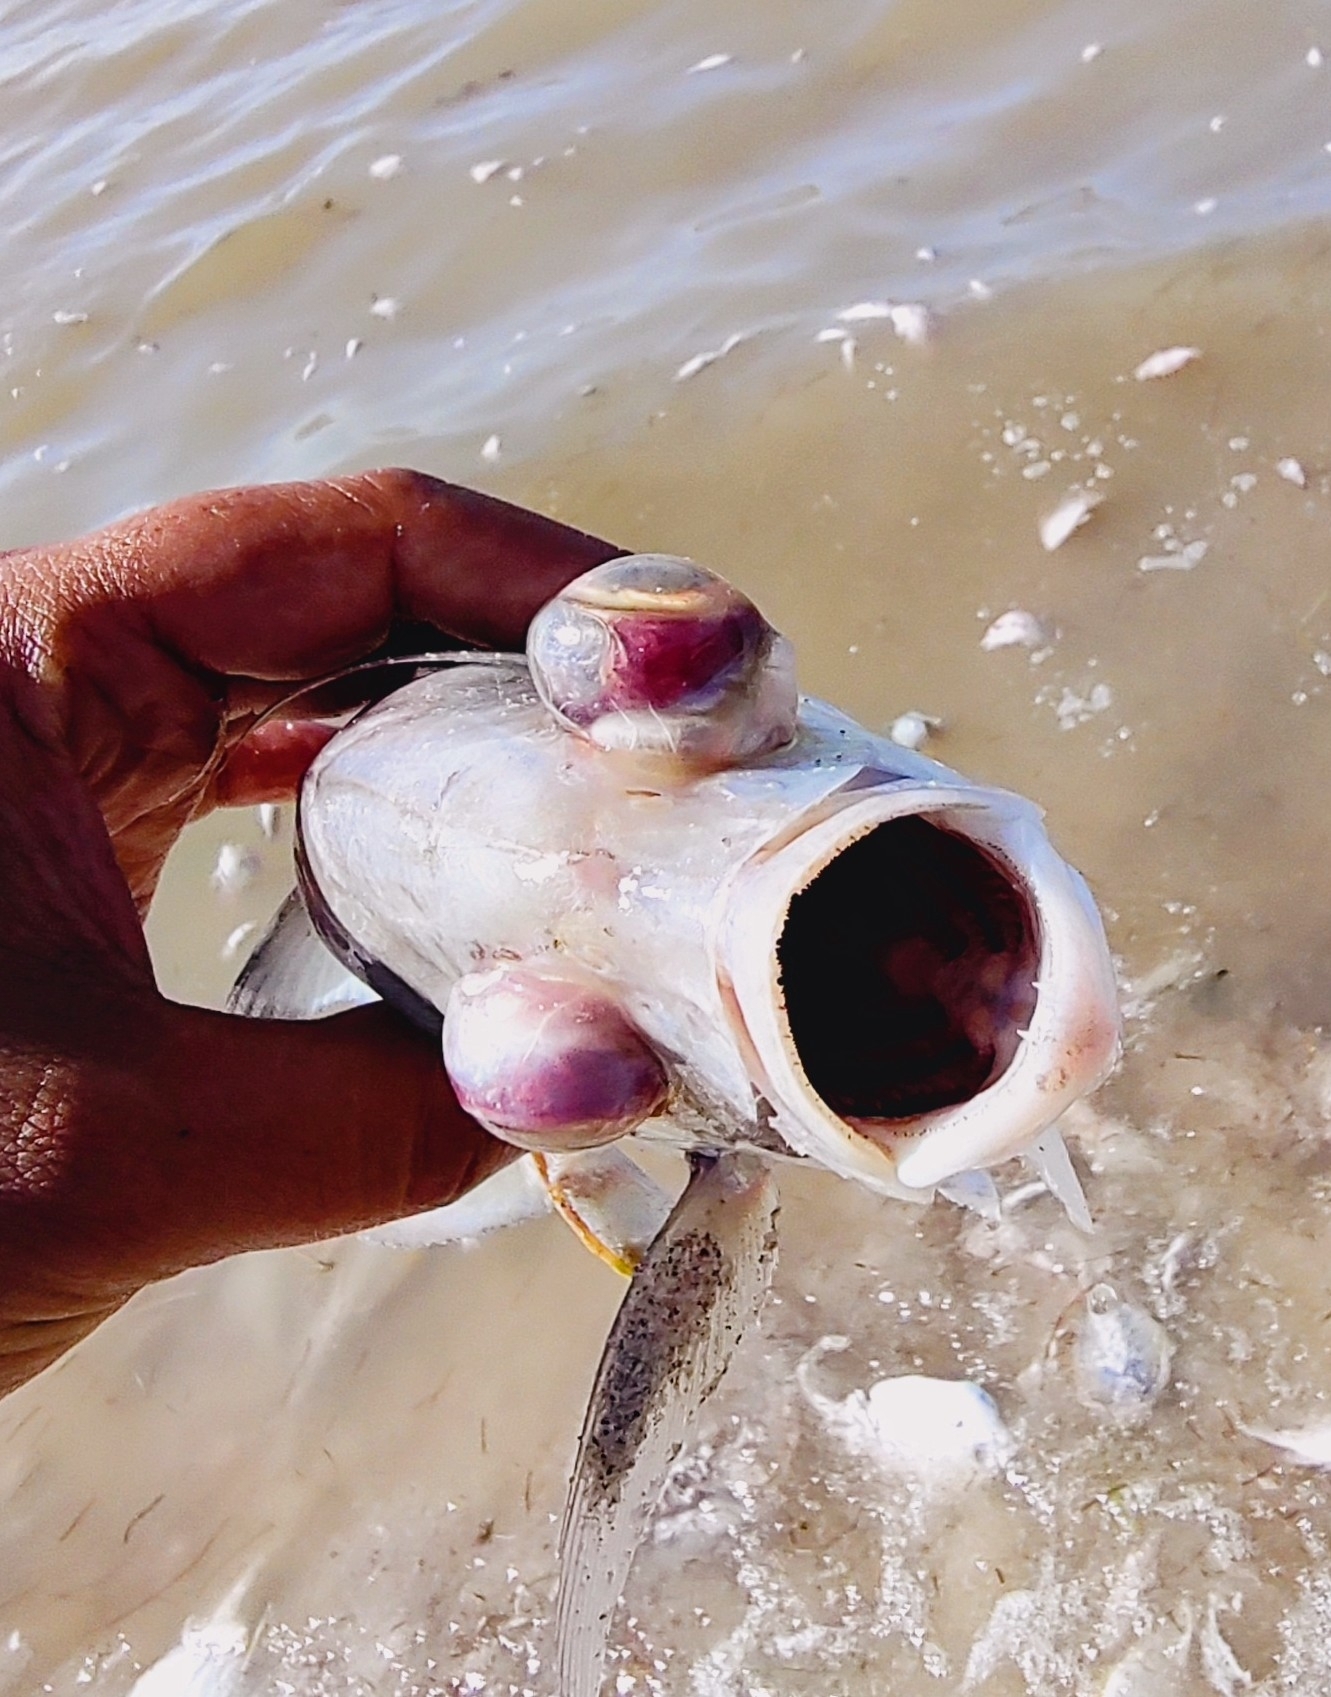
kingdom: Animalia
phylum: Chordata
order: Perciformes
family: Carangidae
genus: Caranx
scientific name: Caranx latus
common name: Horse eye jack
